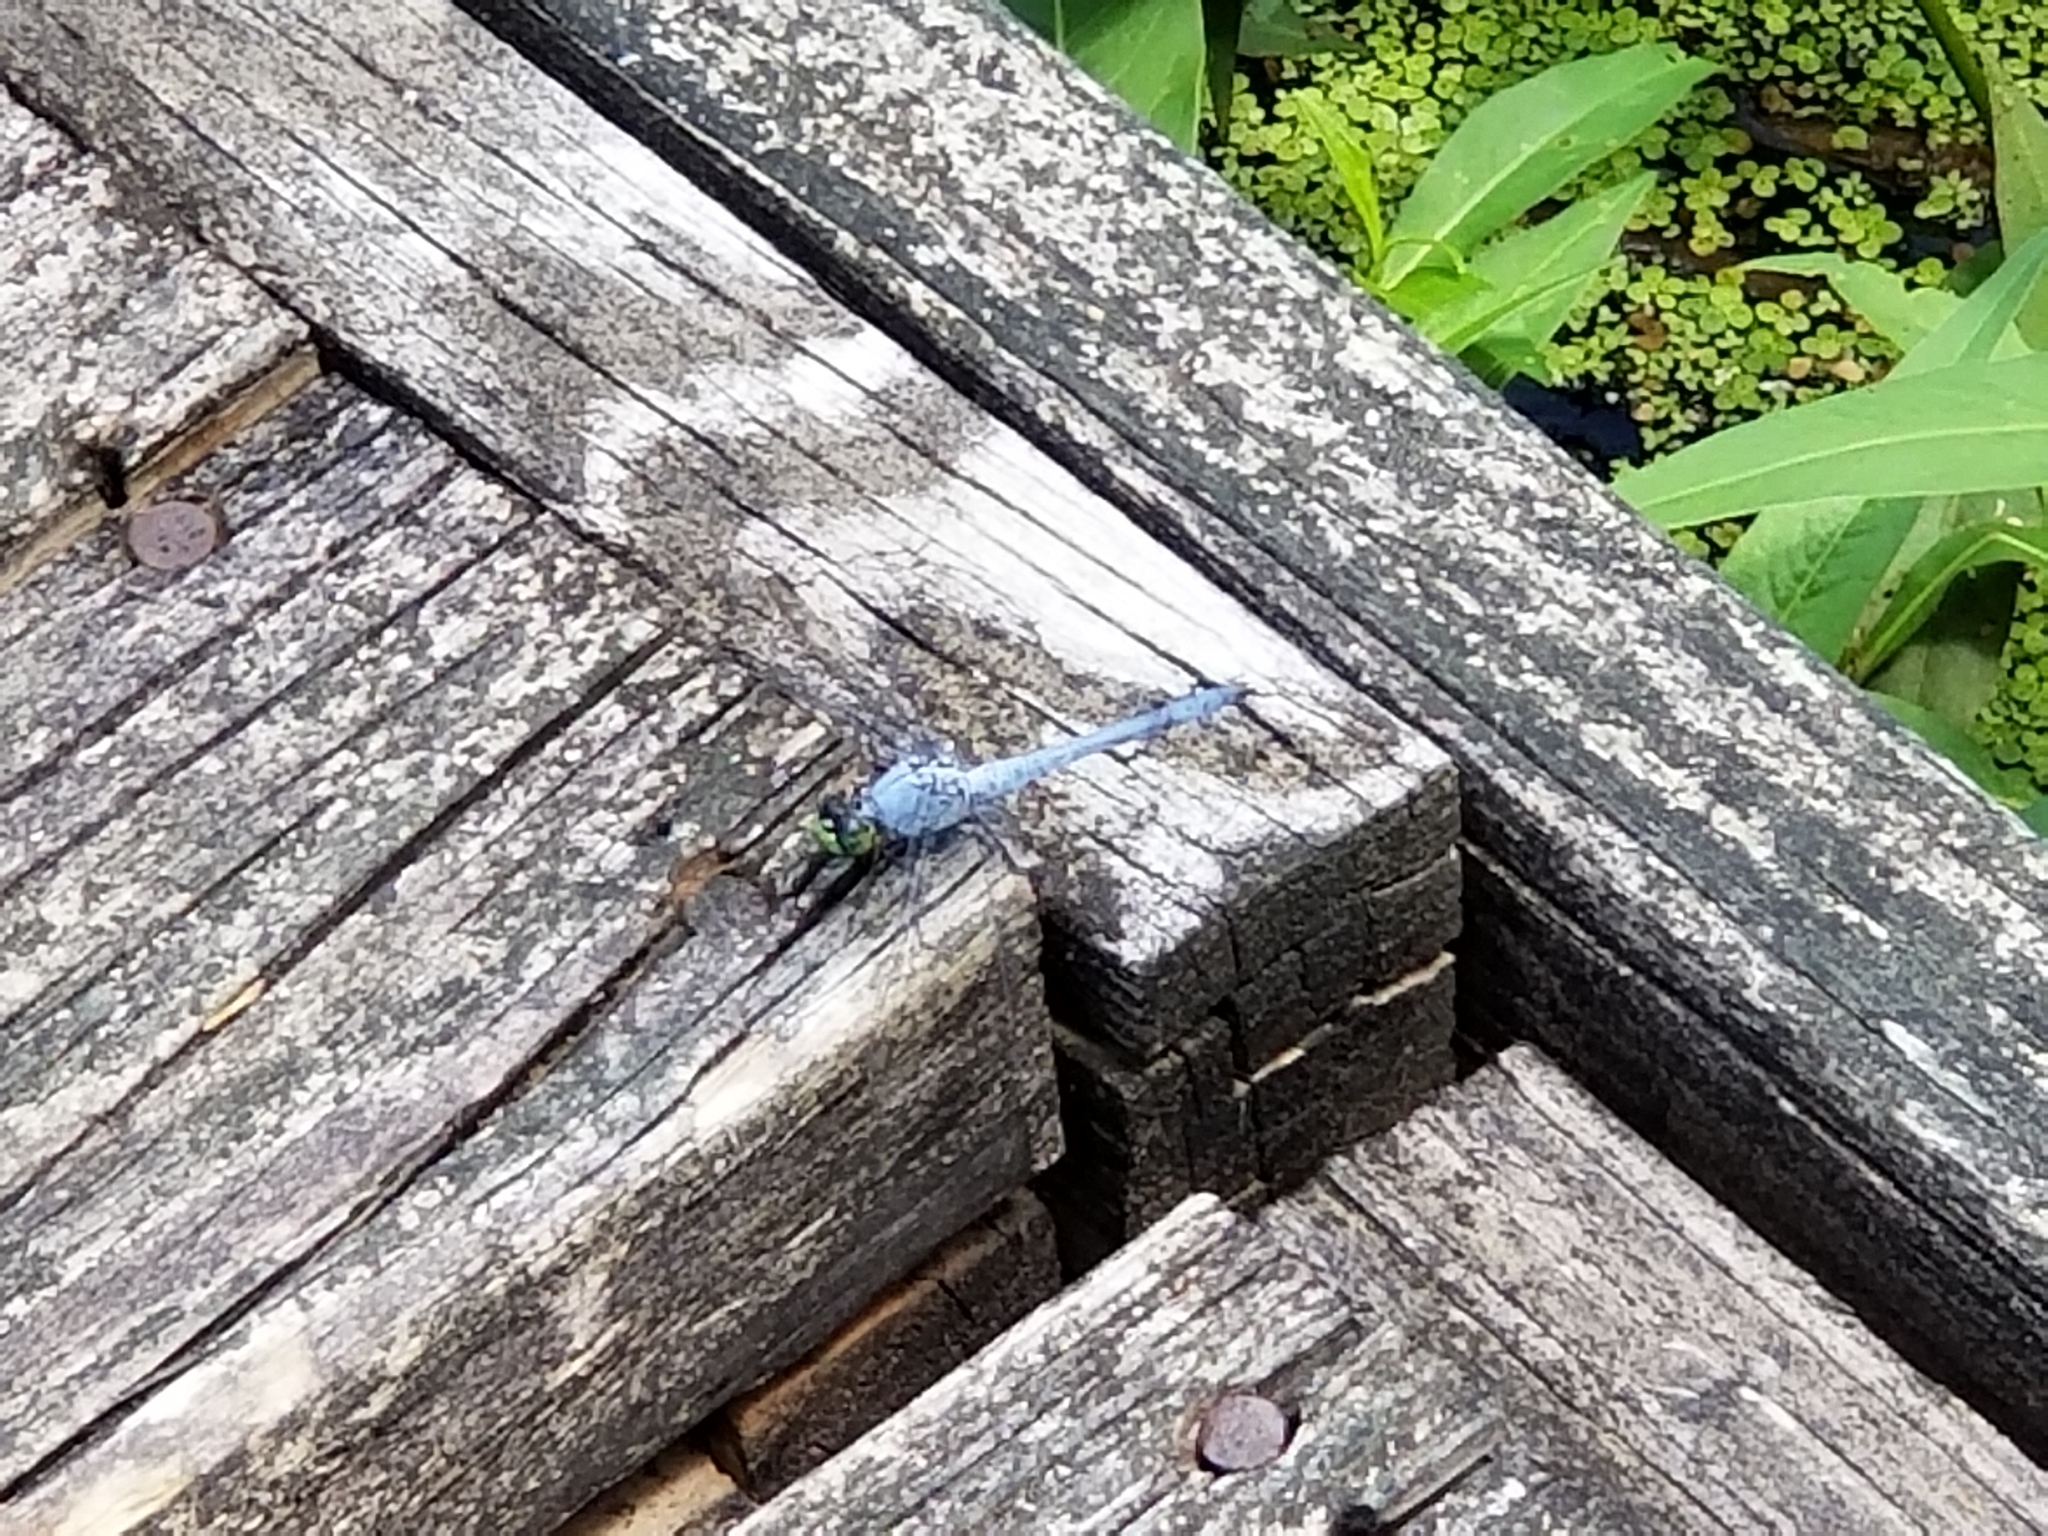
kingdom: Animalia
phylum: Arthropoda
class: Insecta
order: Odonata
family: Libellulidae
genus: Erythemis
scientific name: Erythemis simplicicollis
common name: Eastern pondhawk
